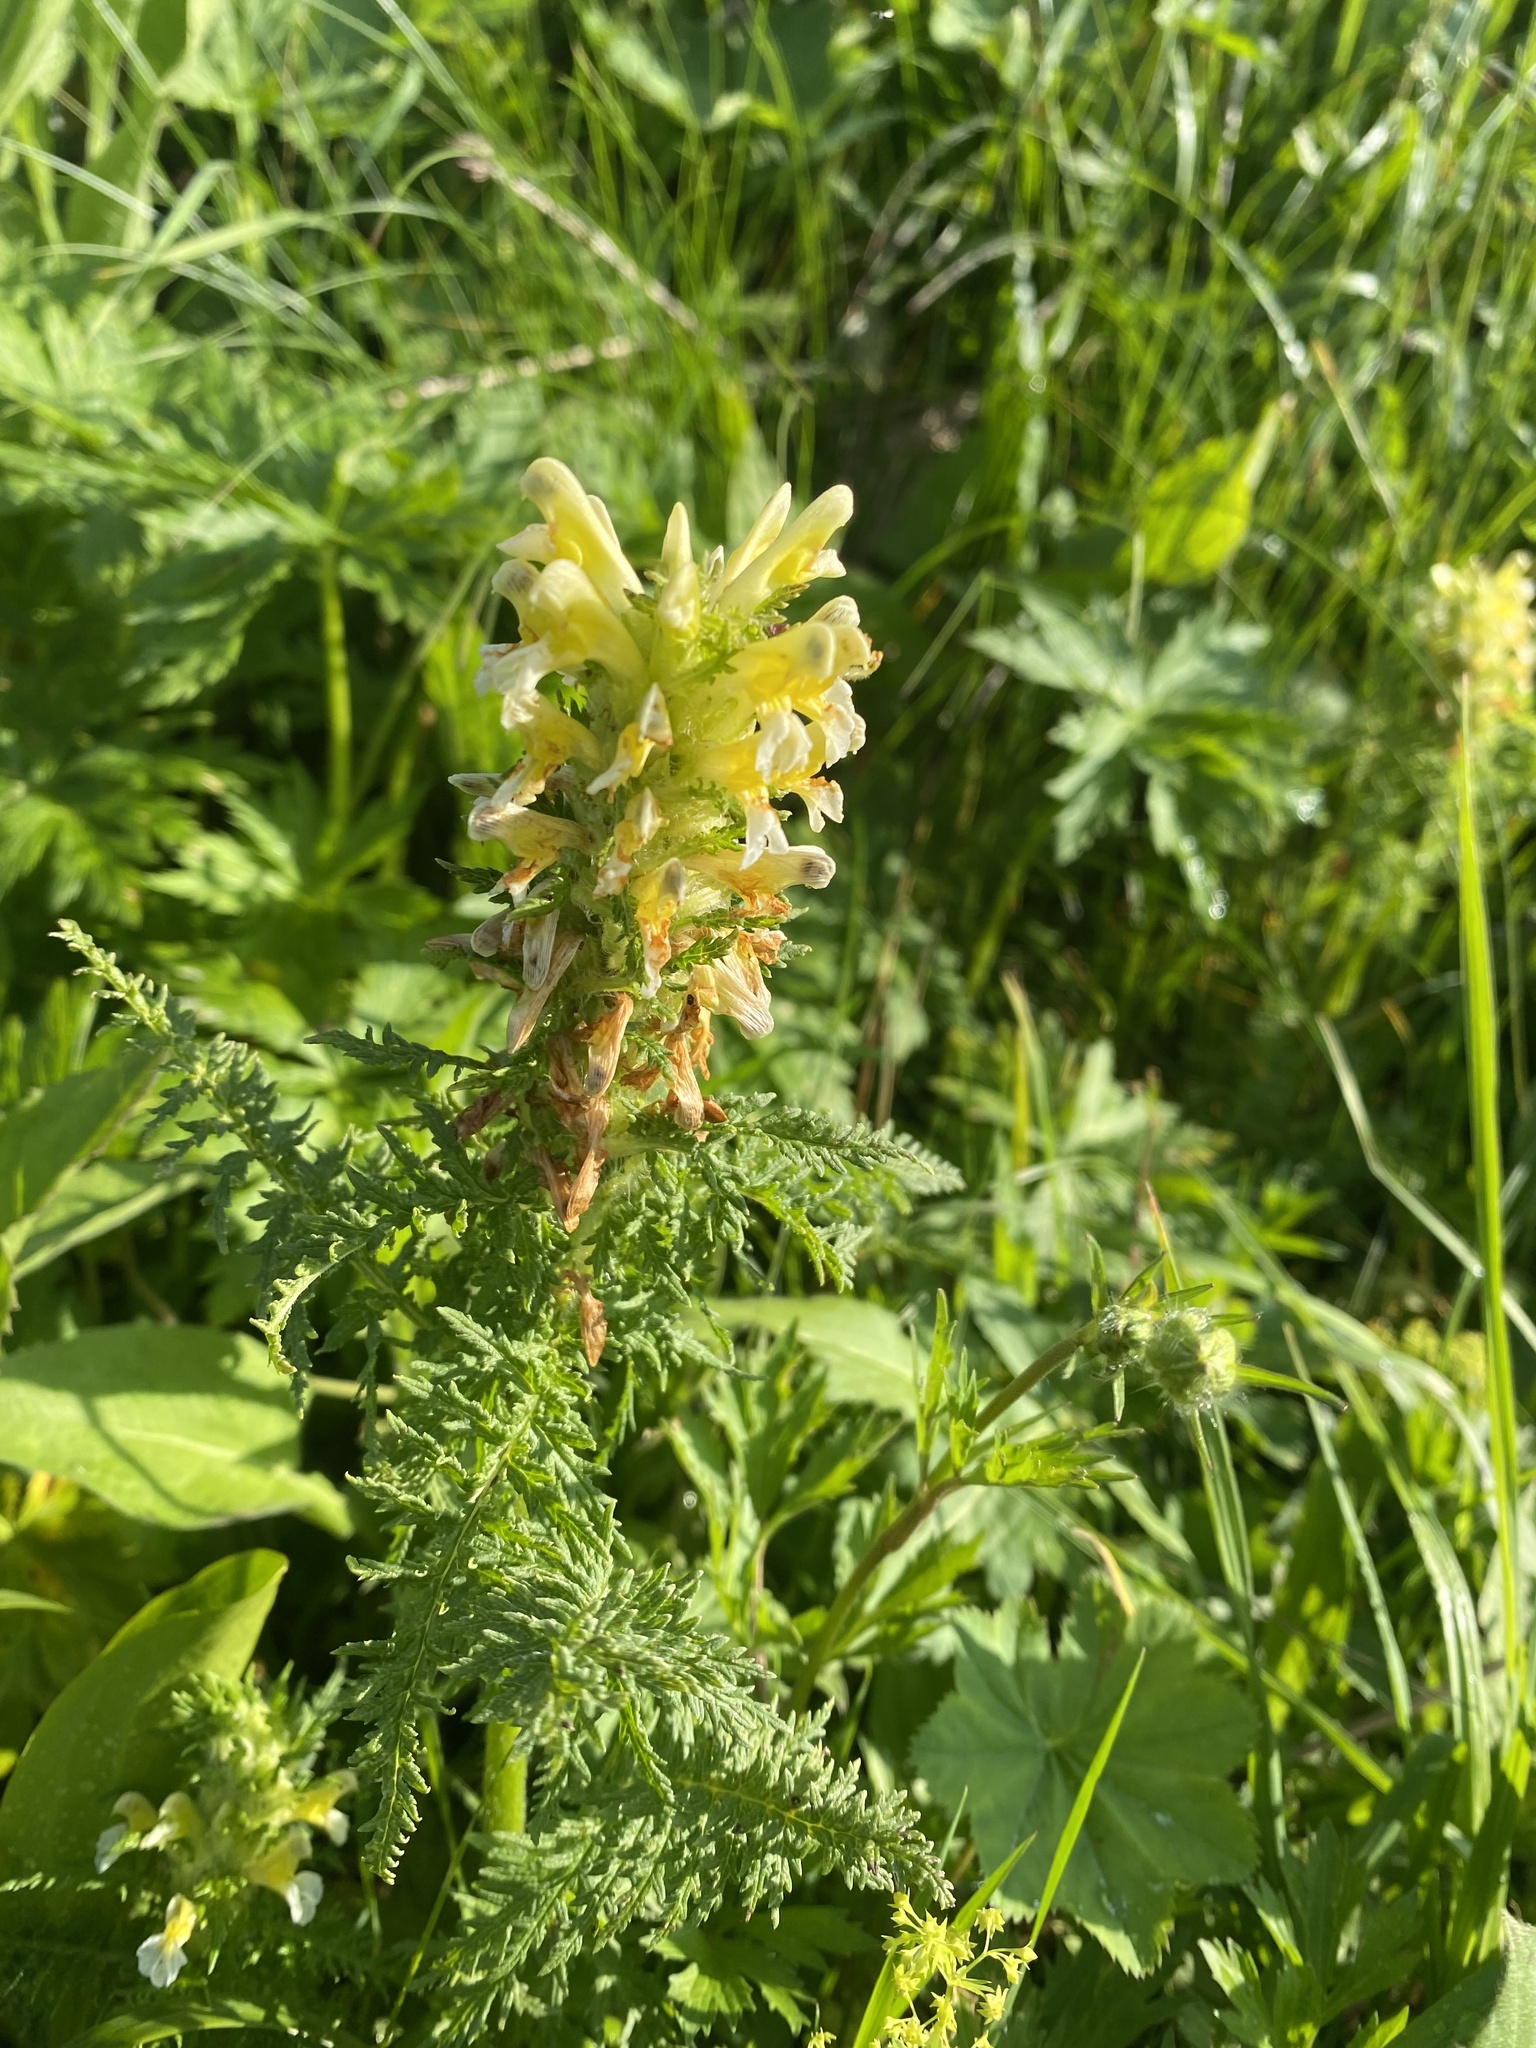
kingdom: Plantae
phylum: Tracheophyta
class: Magnoliopsida
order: Lamiales
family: Orobanchaceae
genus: Pedicularis
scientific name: Pedicularis condensata
